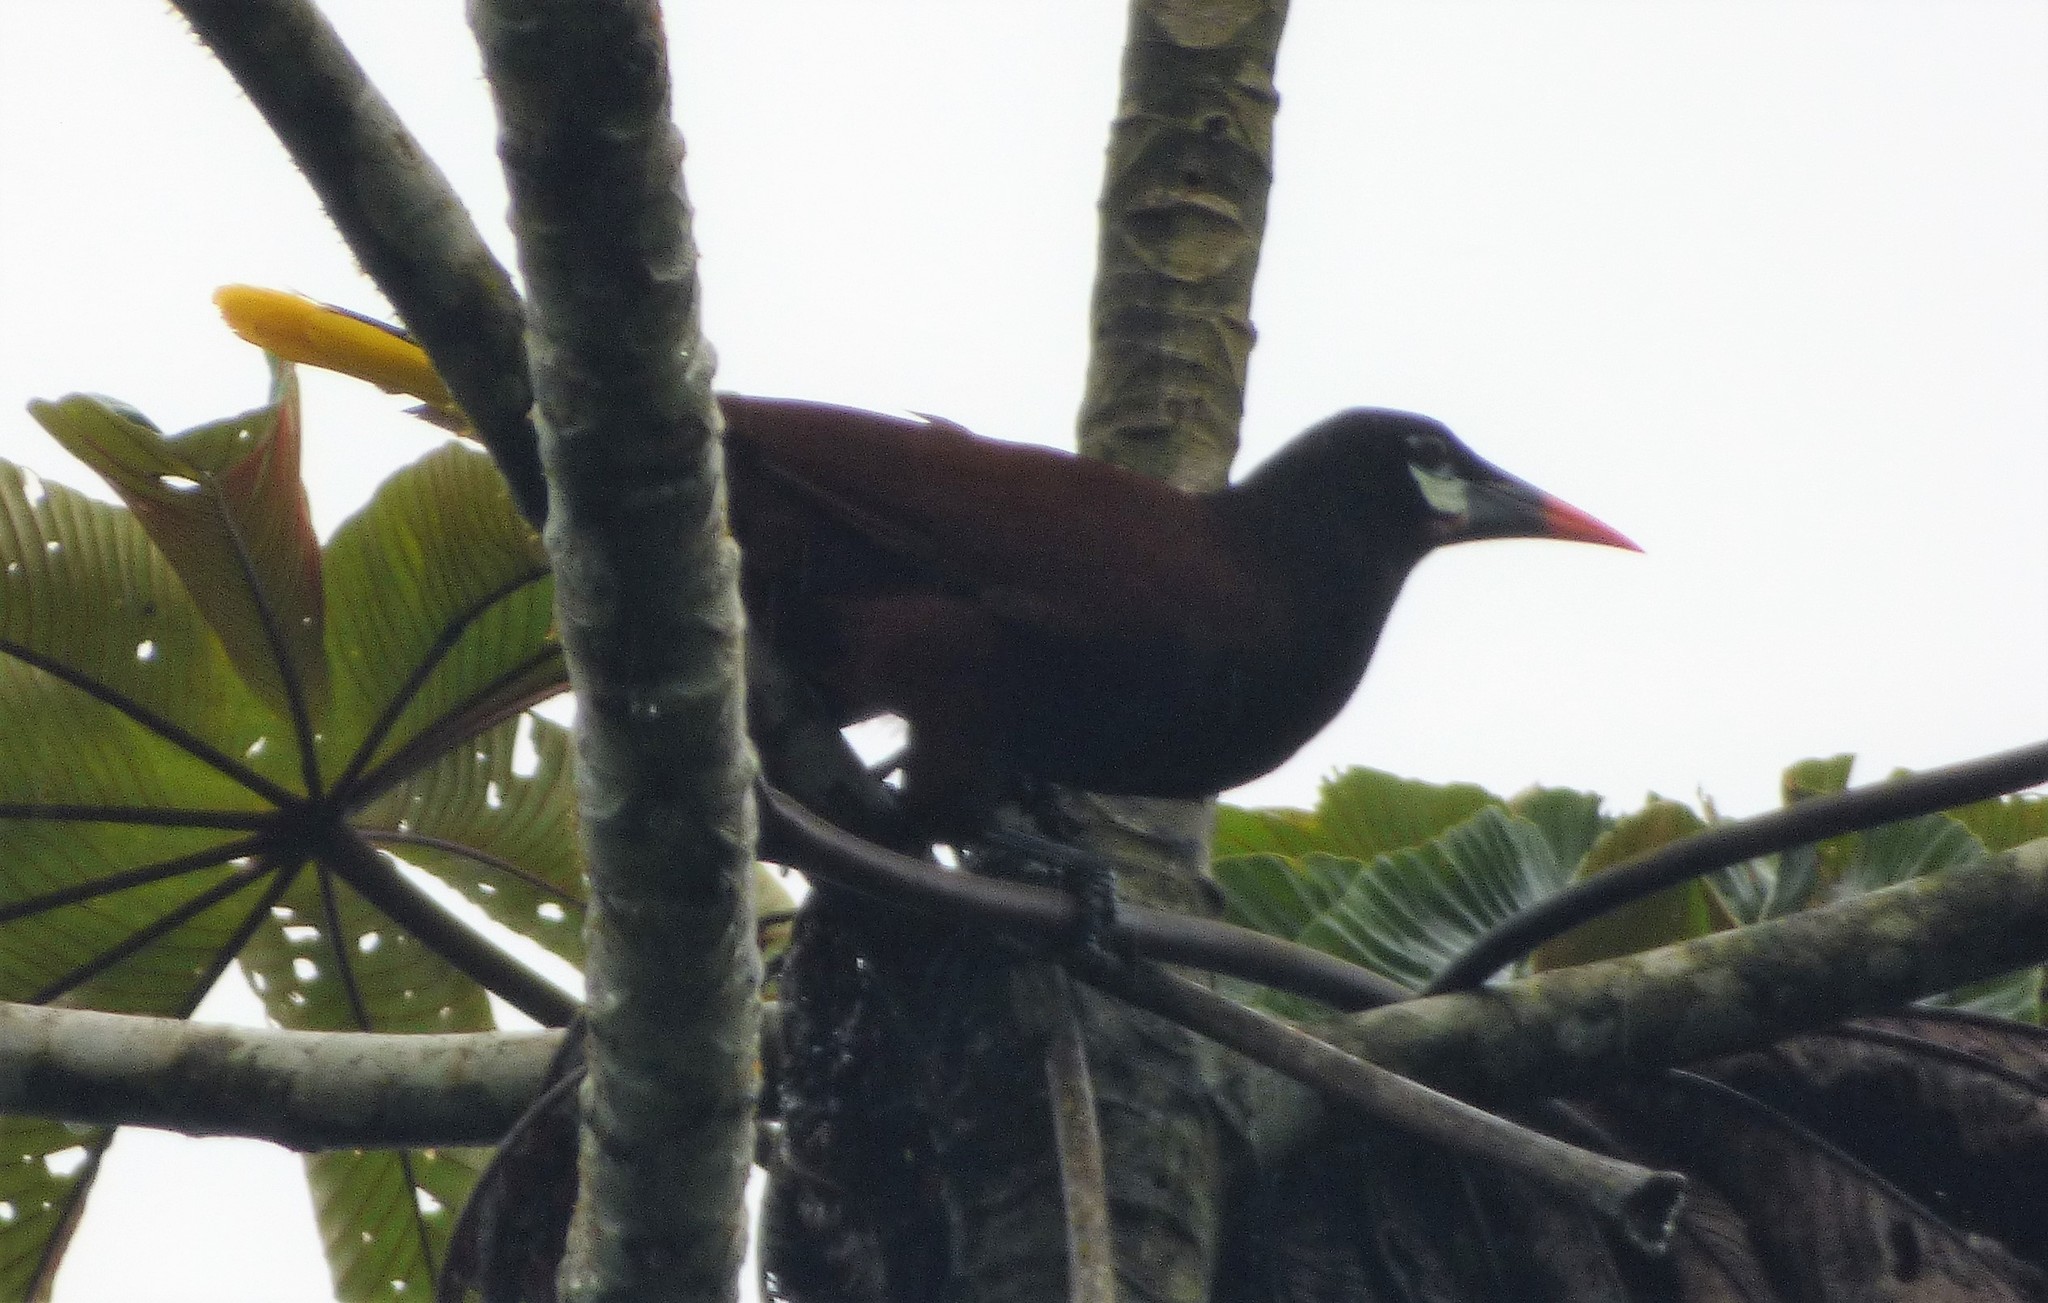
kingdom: Animalia
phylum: Chordata
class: Aves
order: Passeriformes
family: Icteridae
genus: Psarocolius
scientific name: Psarocolius montezuma
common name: Montezuma oropendola
